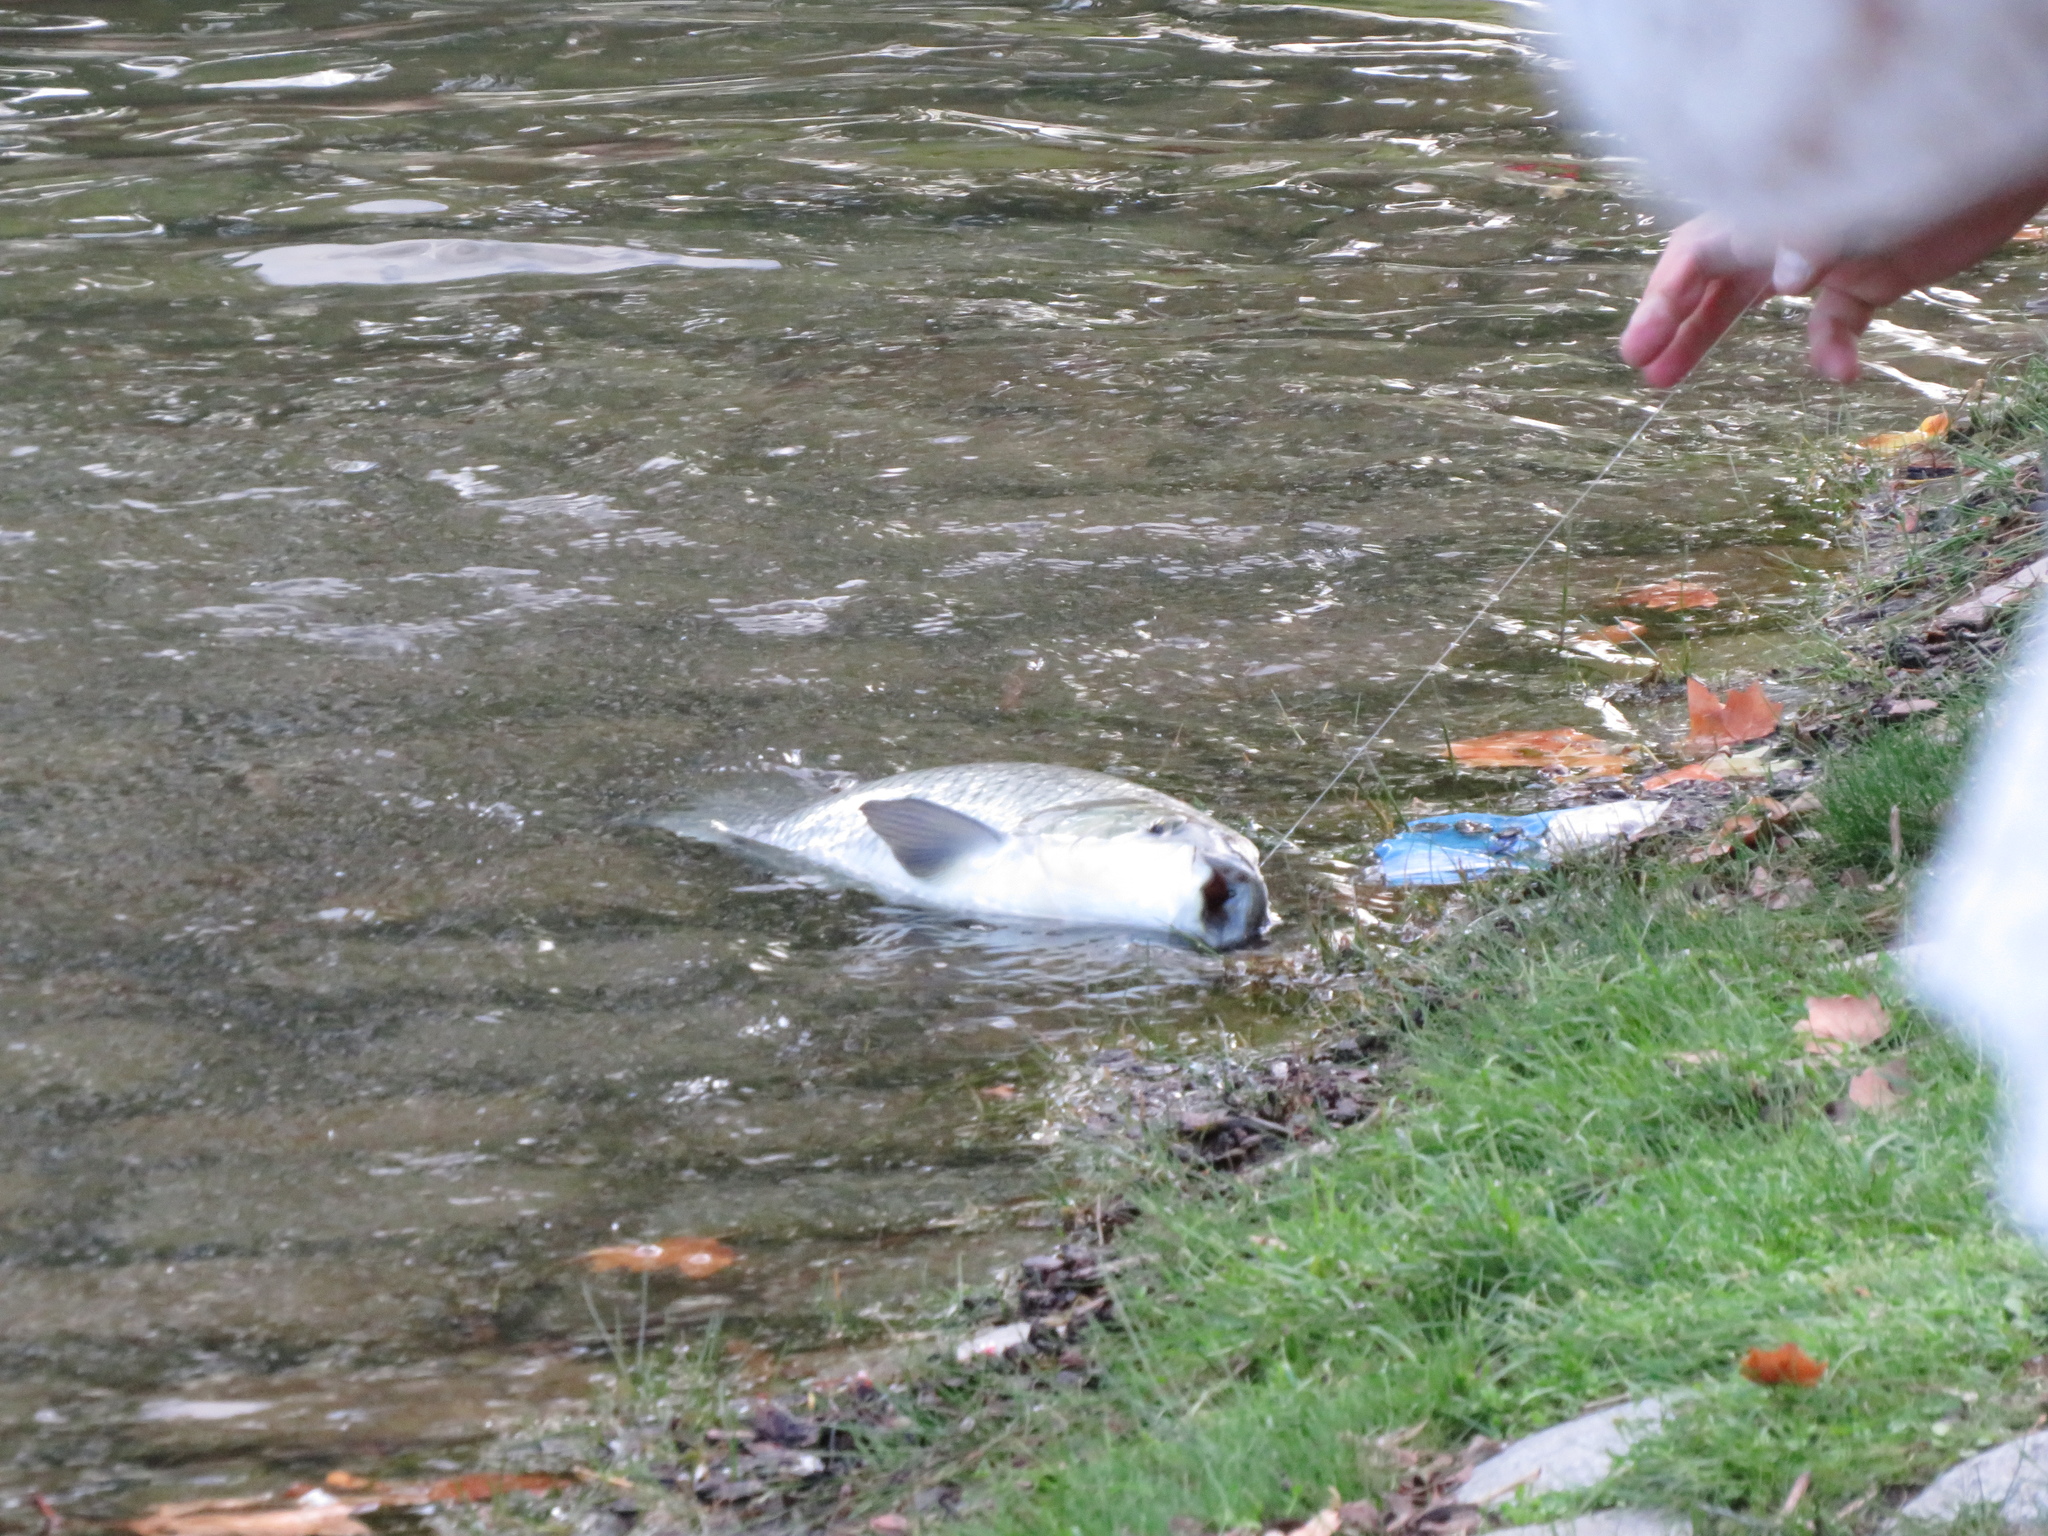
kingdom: Animalia
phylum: Chordata
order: Characiformes
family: Prochilodontidae
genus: Prochilodus
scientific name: Prochilodus lineatus
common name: Curimbata
